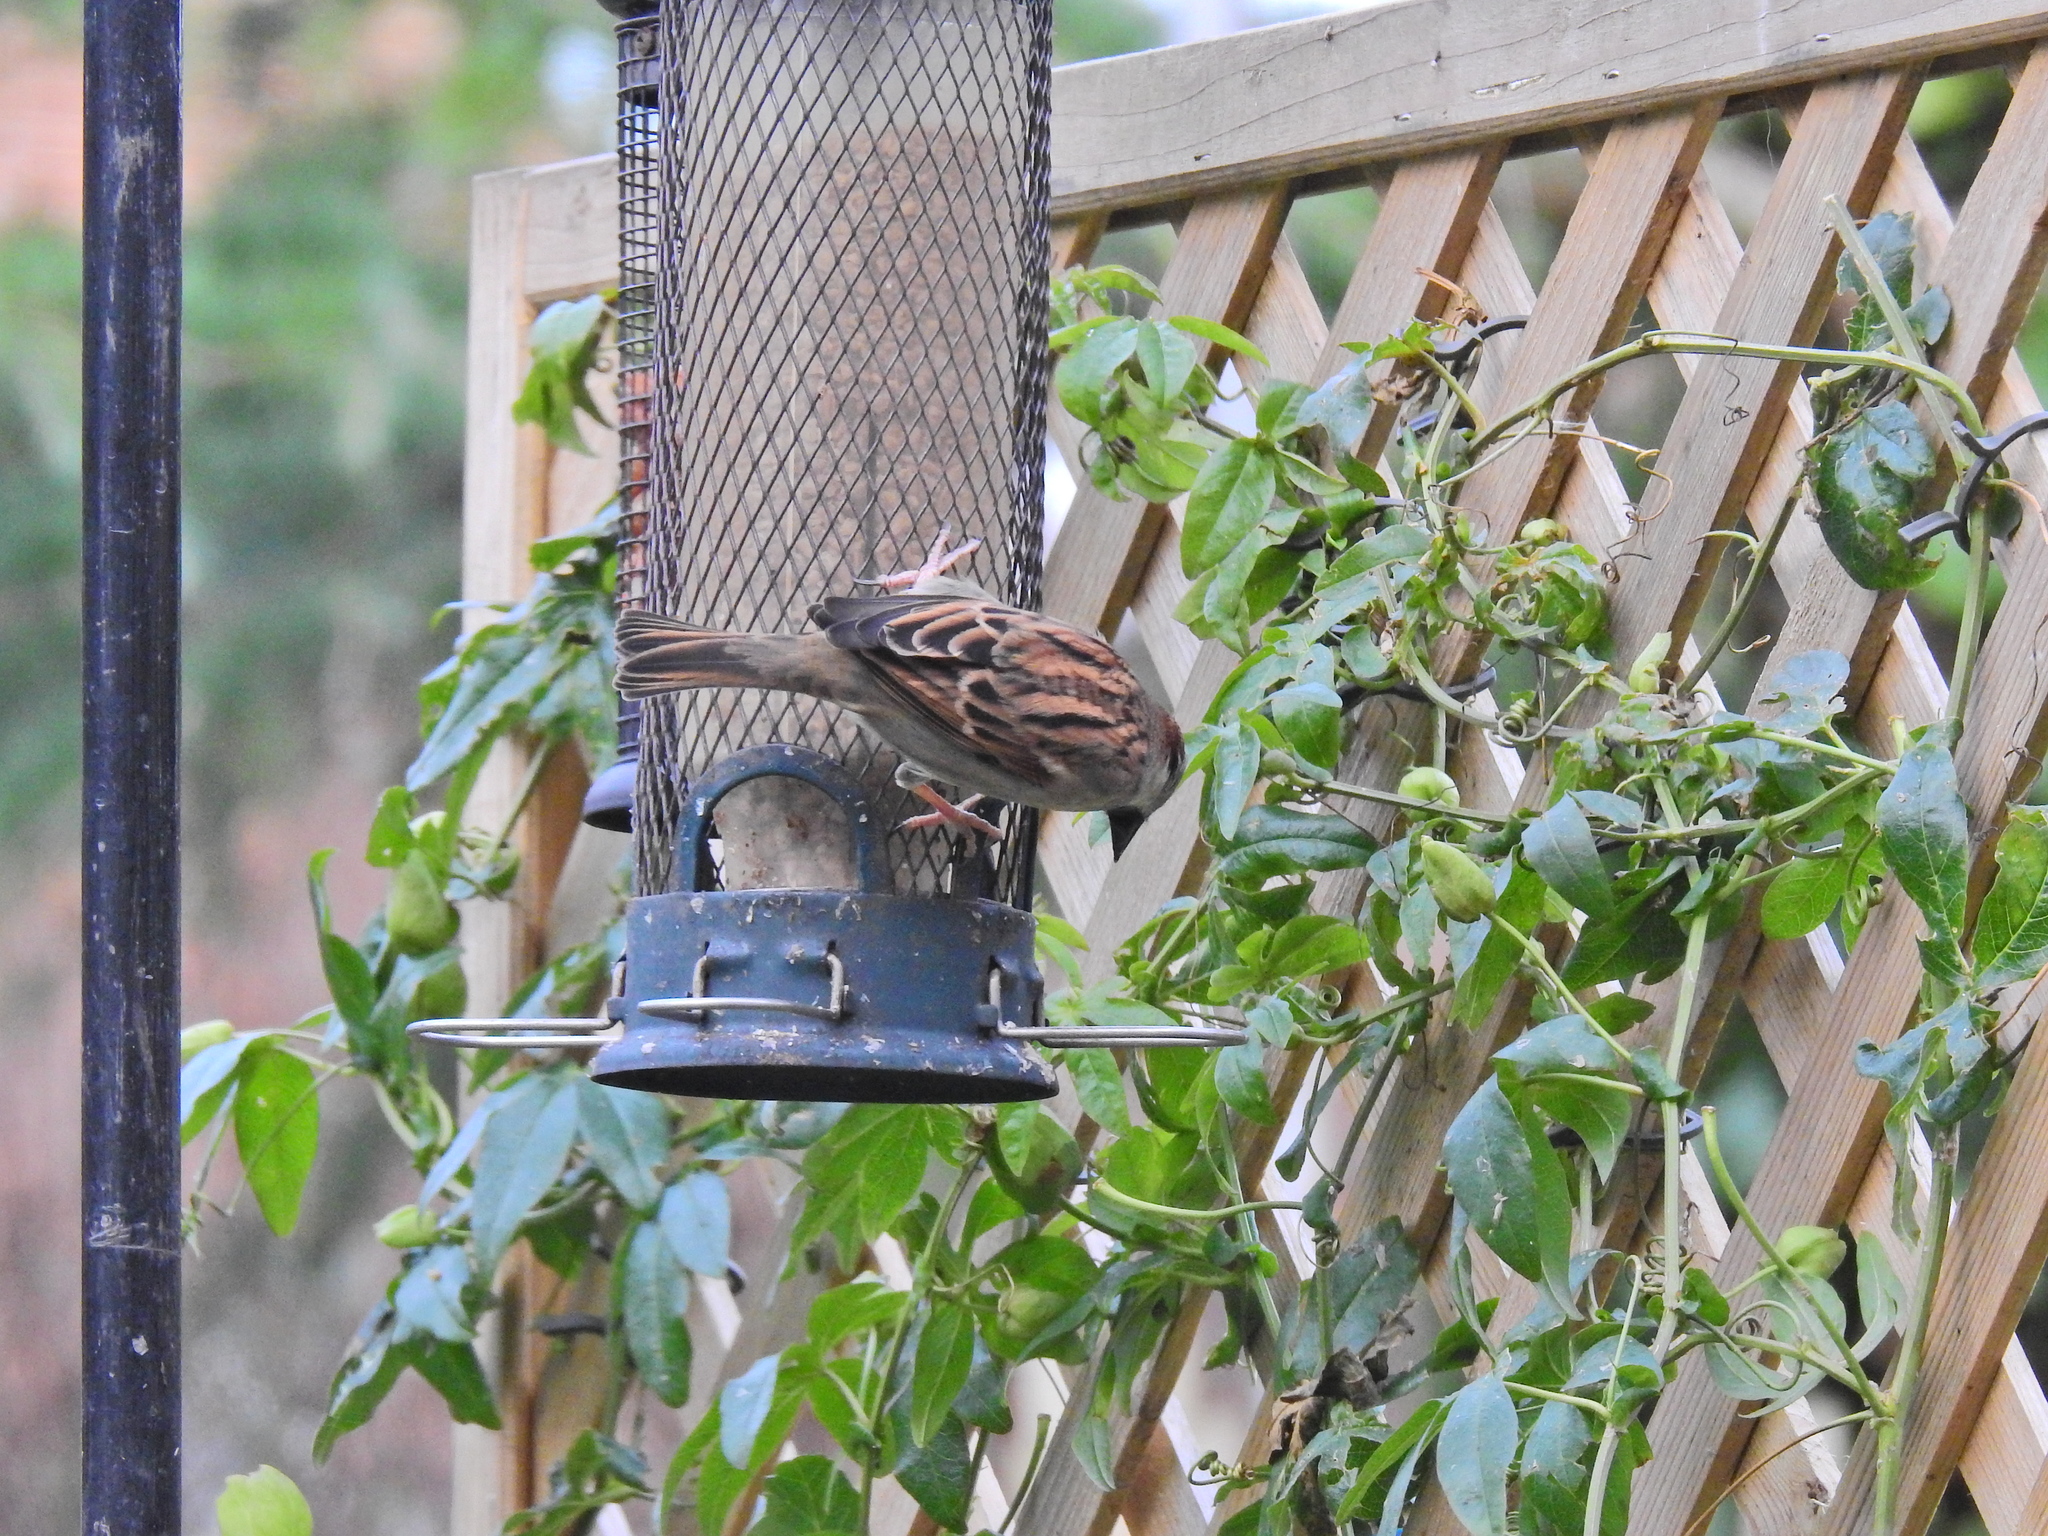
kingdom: Animalia
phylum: Chordata
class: Aves
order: Passeriformes
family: Passeridae
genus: Passer
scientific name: Passer domesticus
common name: House sparrow
